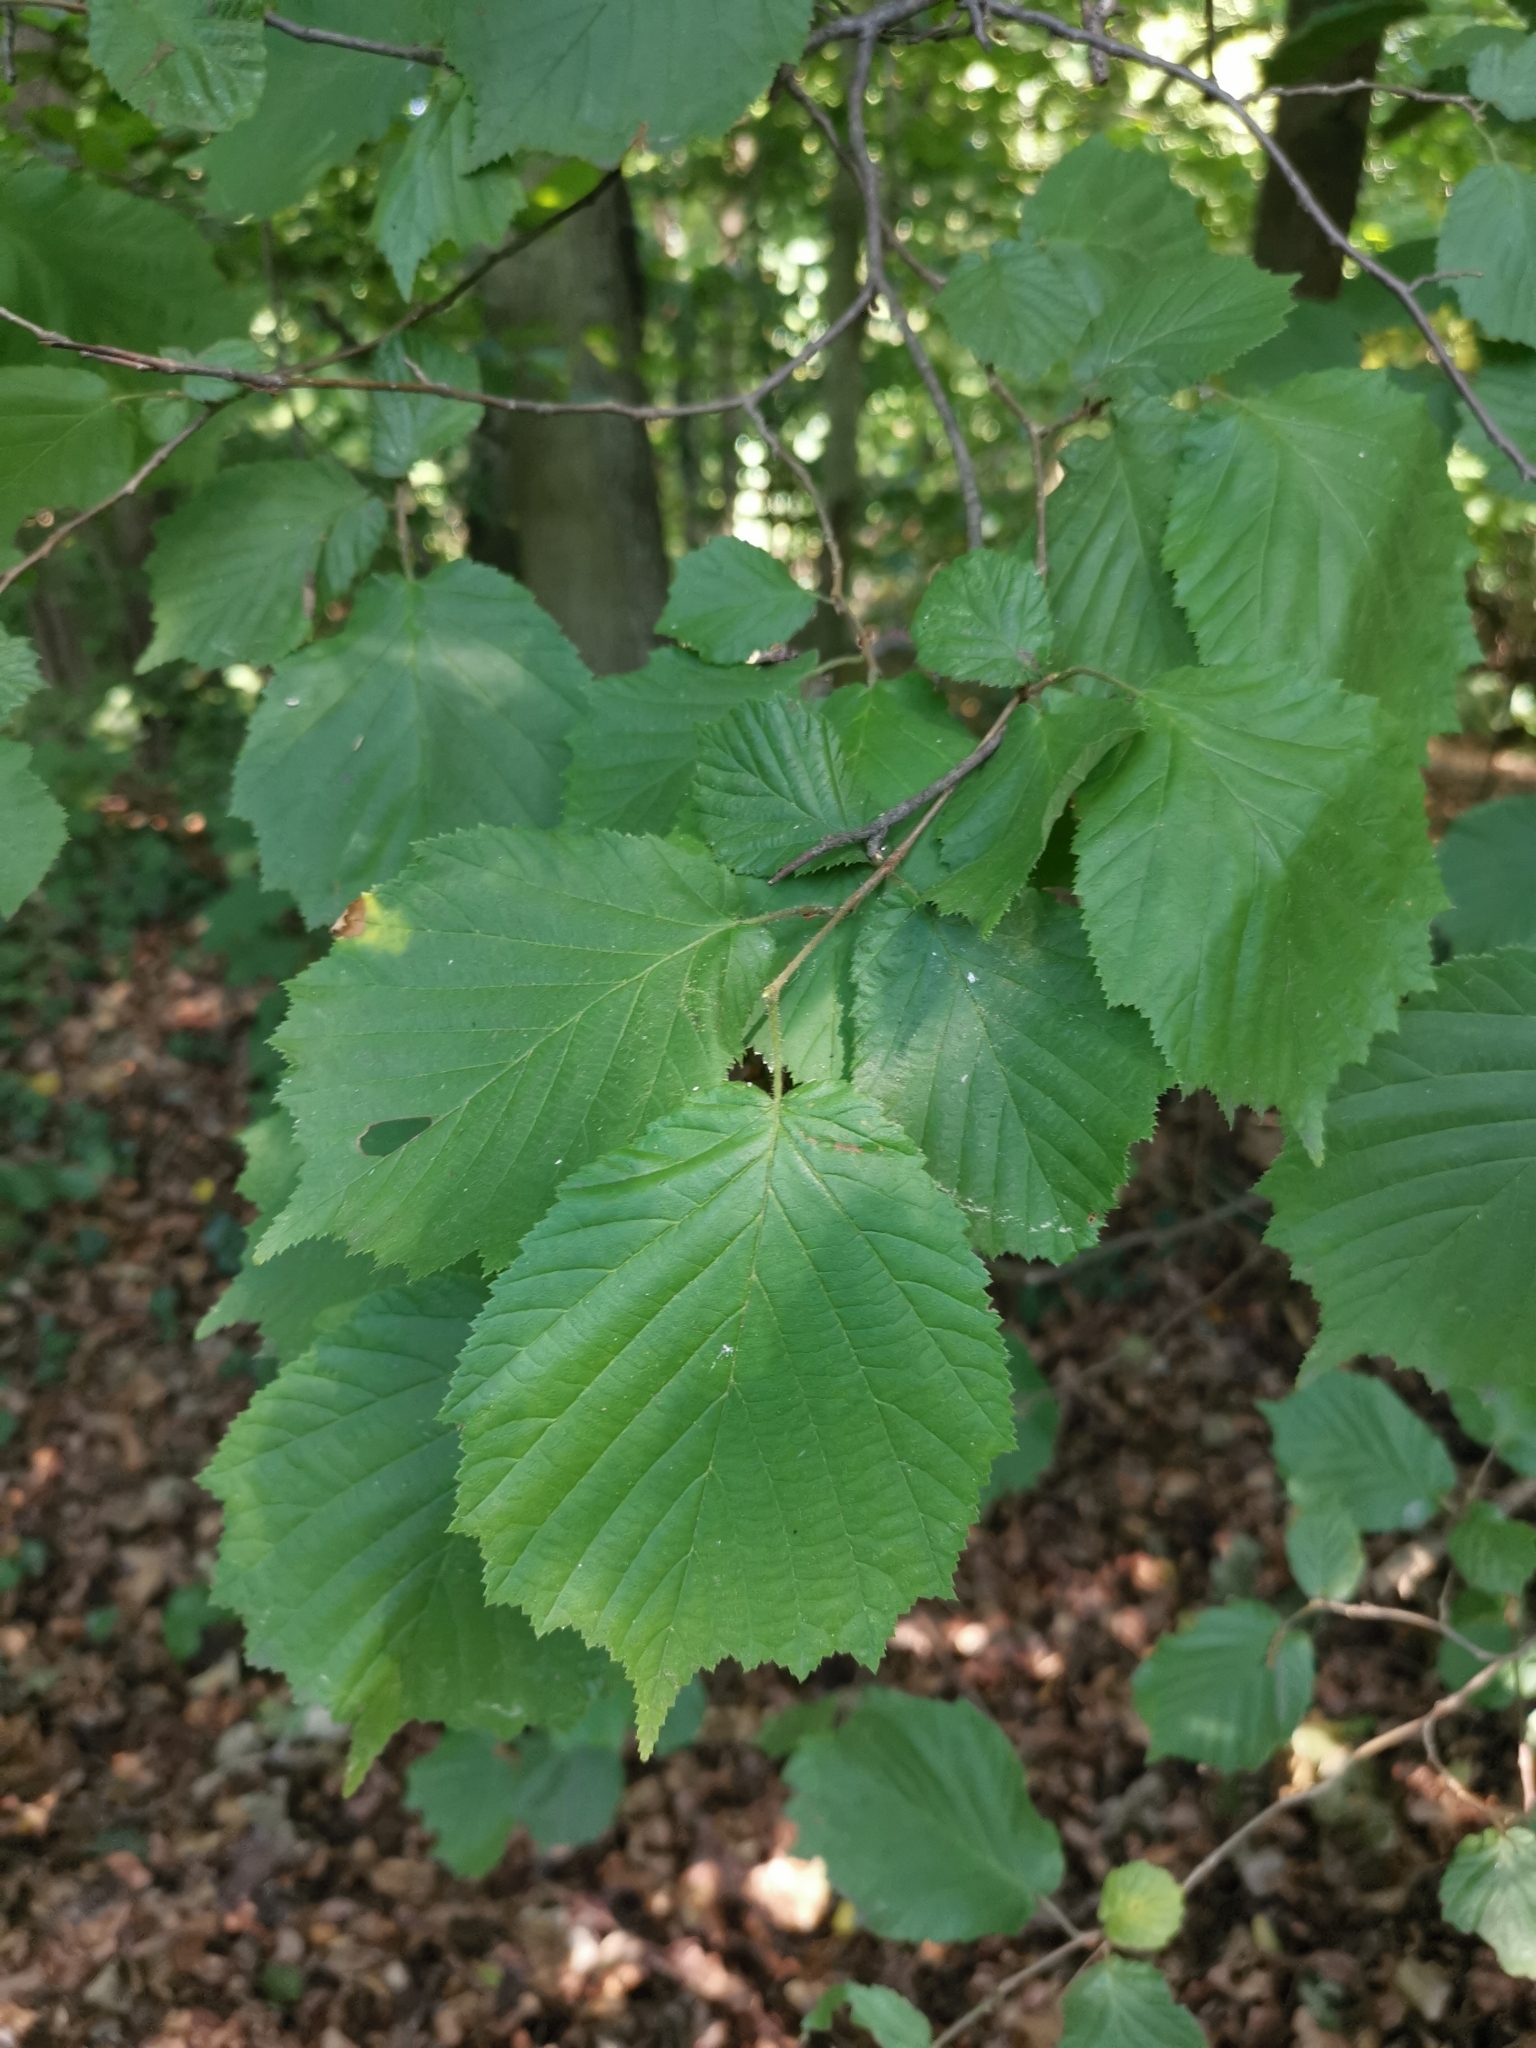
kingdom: Plantae
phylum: Tracheophyta
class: Magnoliopsida
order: Fagales
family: Betulaceae
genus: Corylus
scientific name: Corylus avellana
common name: European hazel
